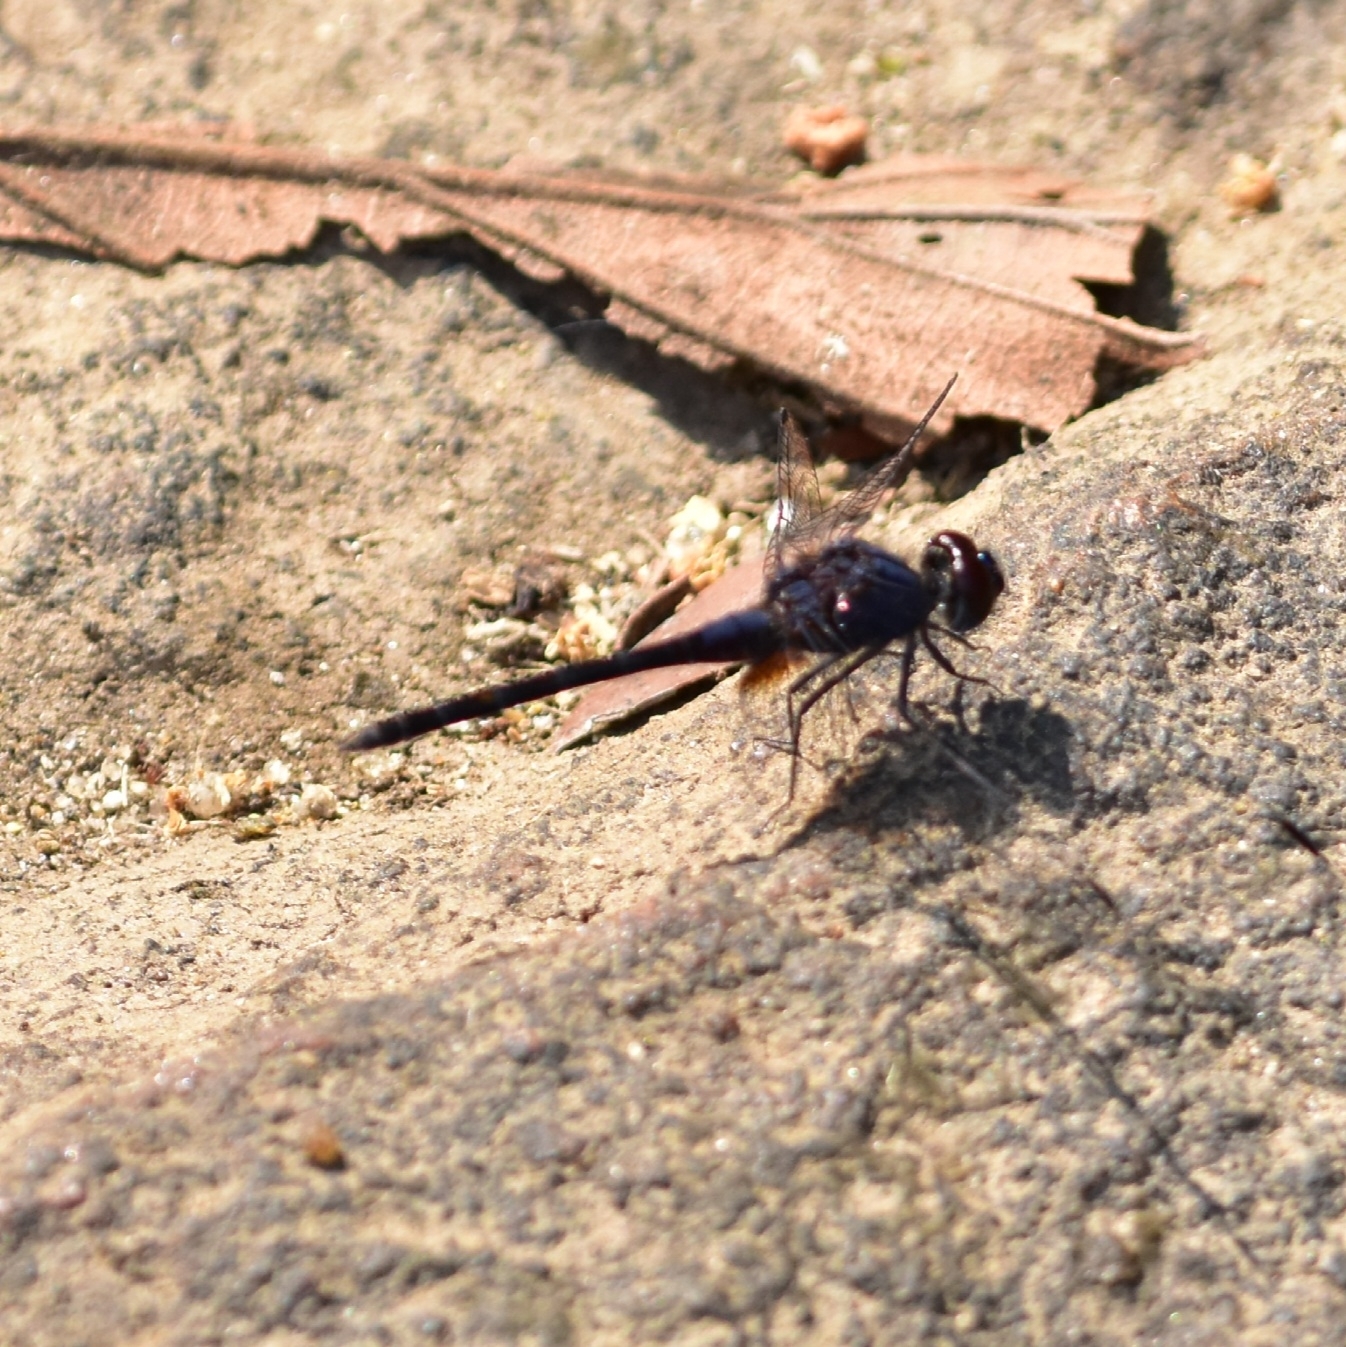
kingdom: Animalia
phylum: Arthropoda
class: Insecta
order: Odonata
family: Libellulidae
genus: Trithemis
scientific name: Trithemis festiva
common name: Indigo dropwing
